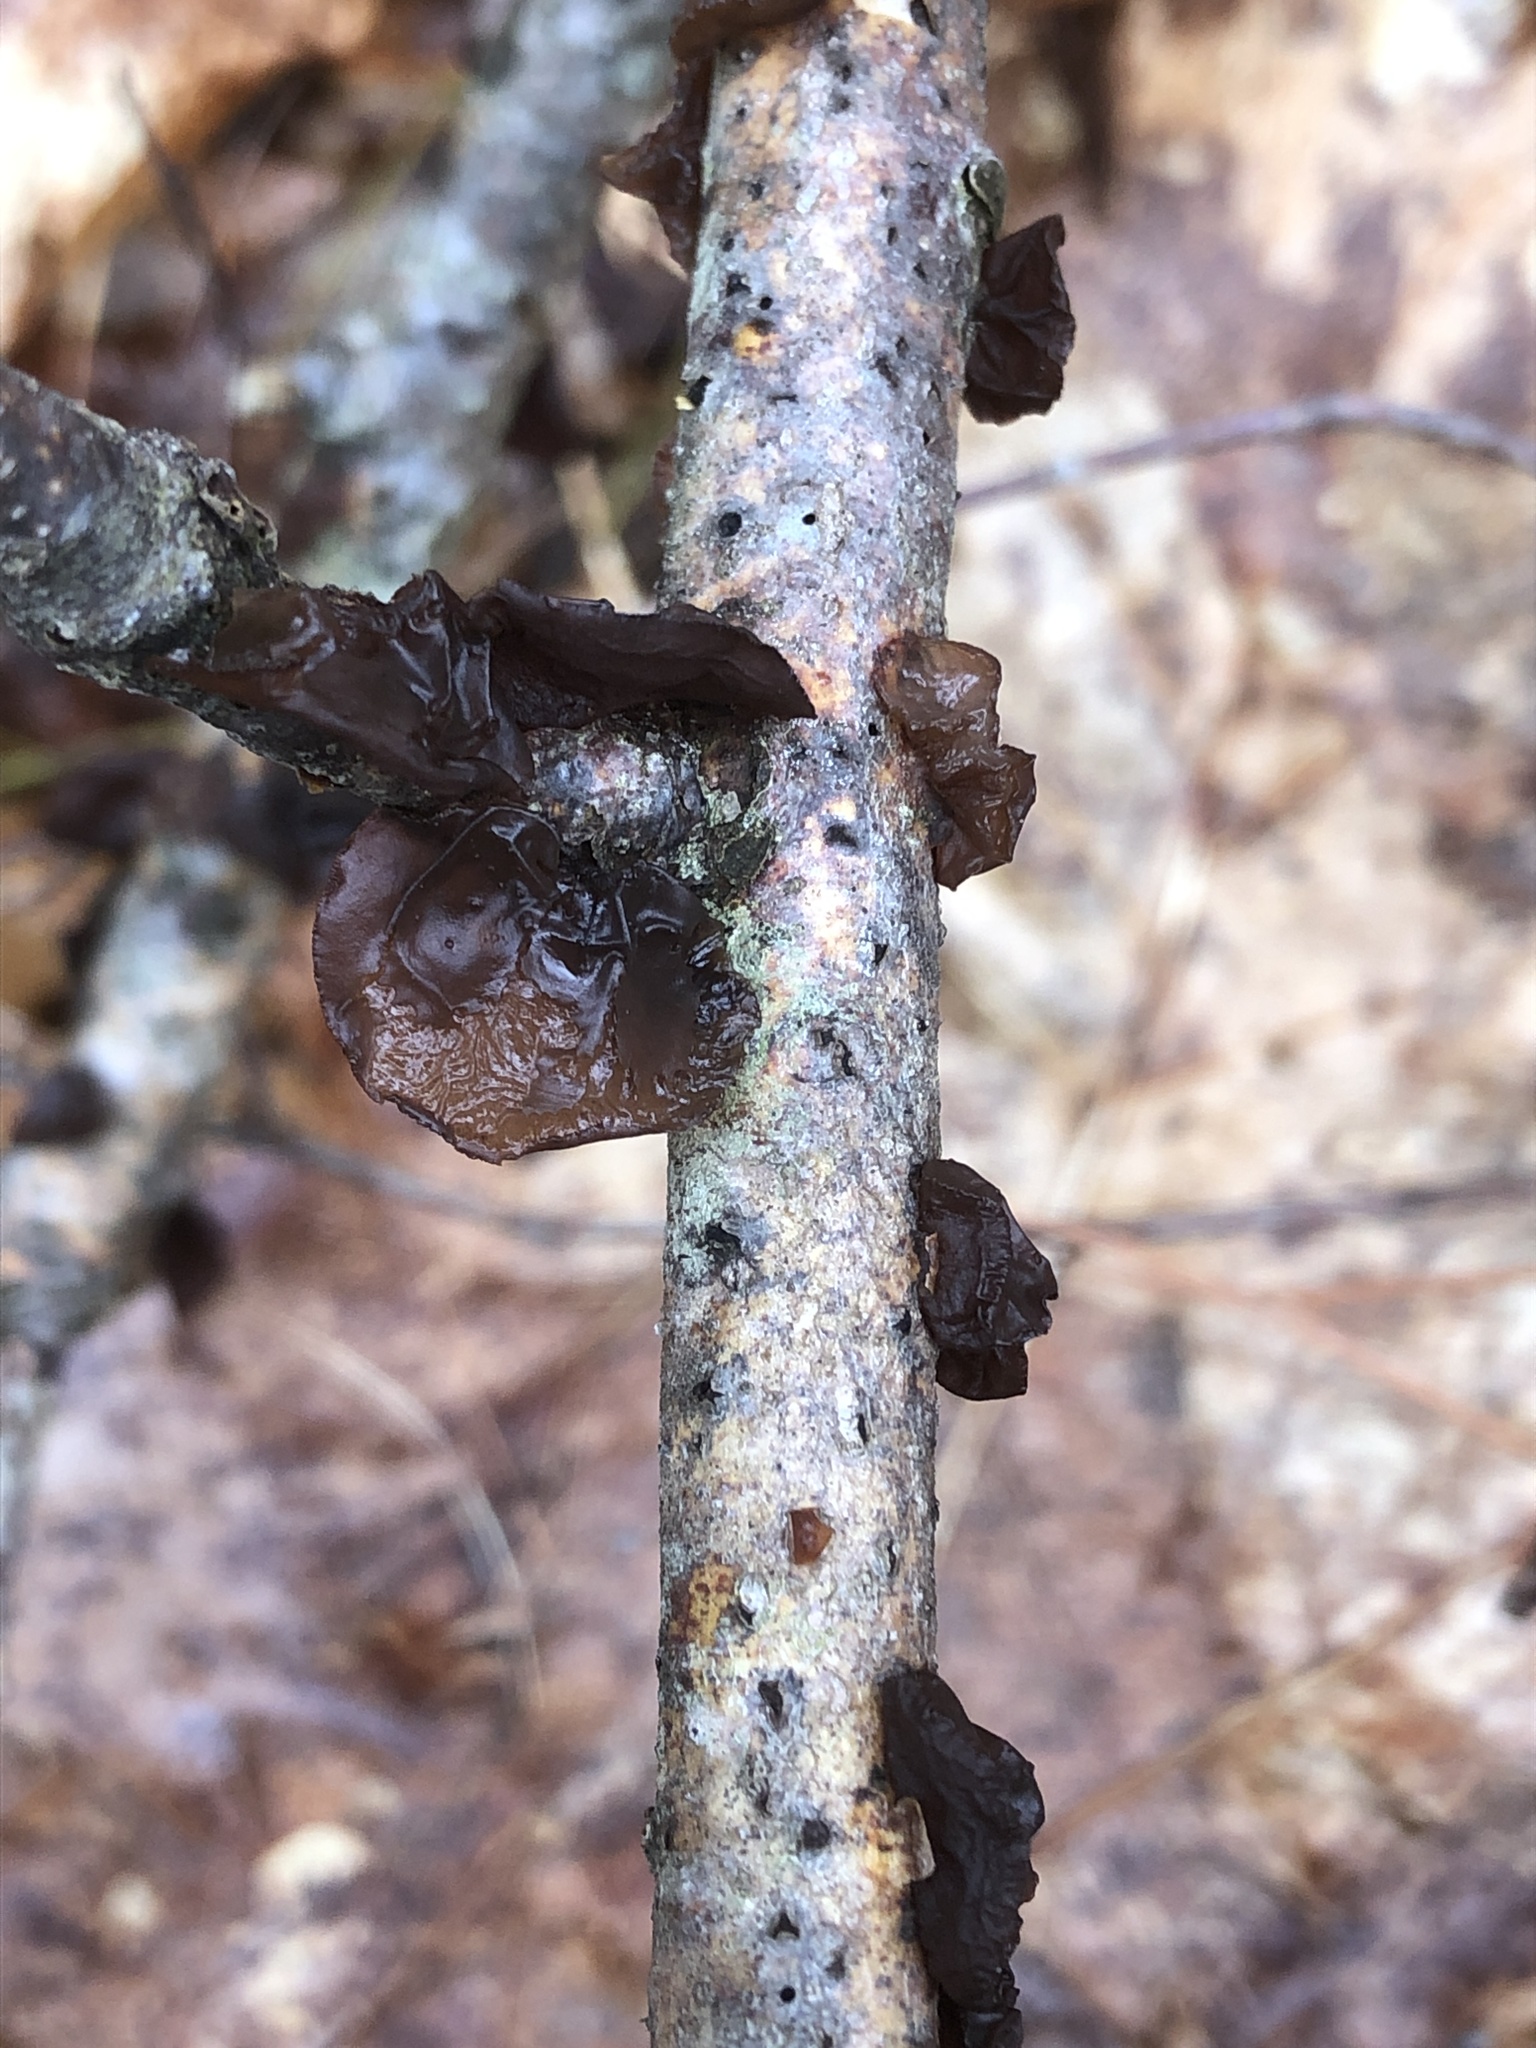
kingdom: Fungi
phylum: Basidiomycota
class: Agaricomycetes
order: Auriculariales
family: Auriculariaceae
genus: Exidia
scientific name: Exidia
